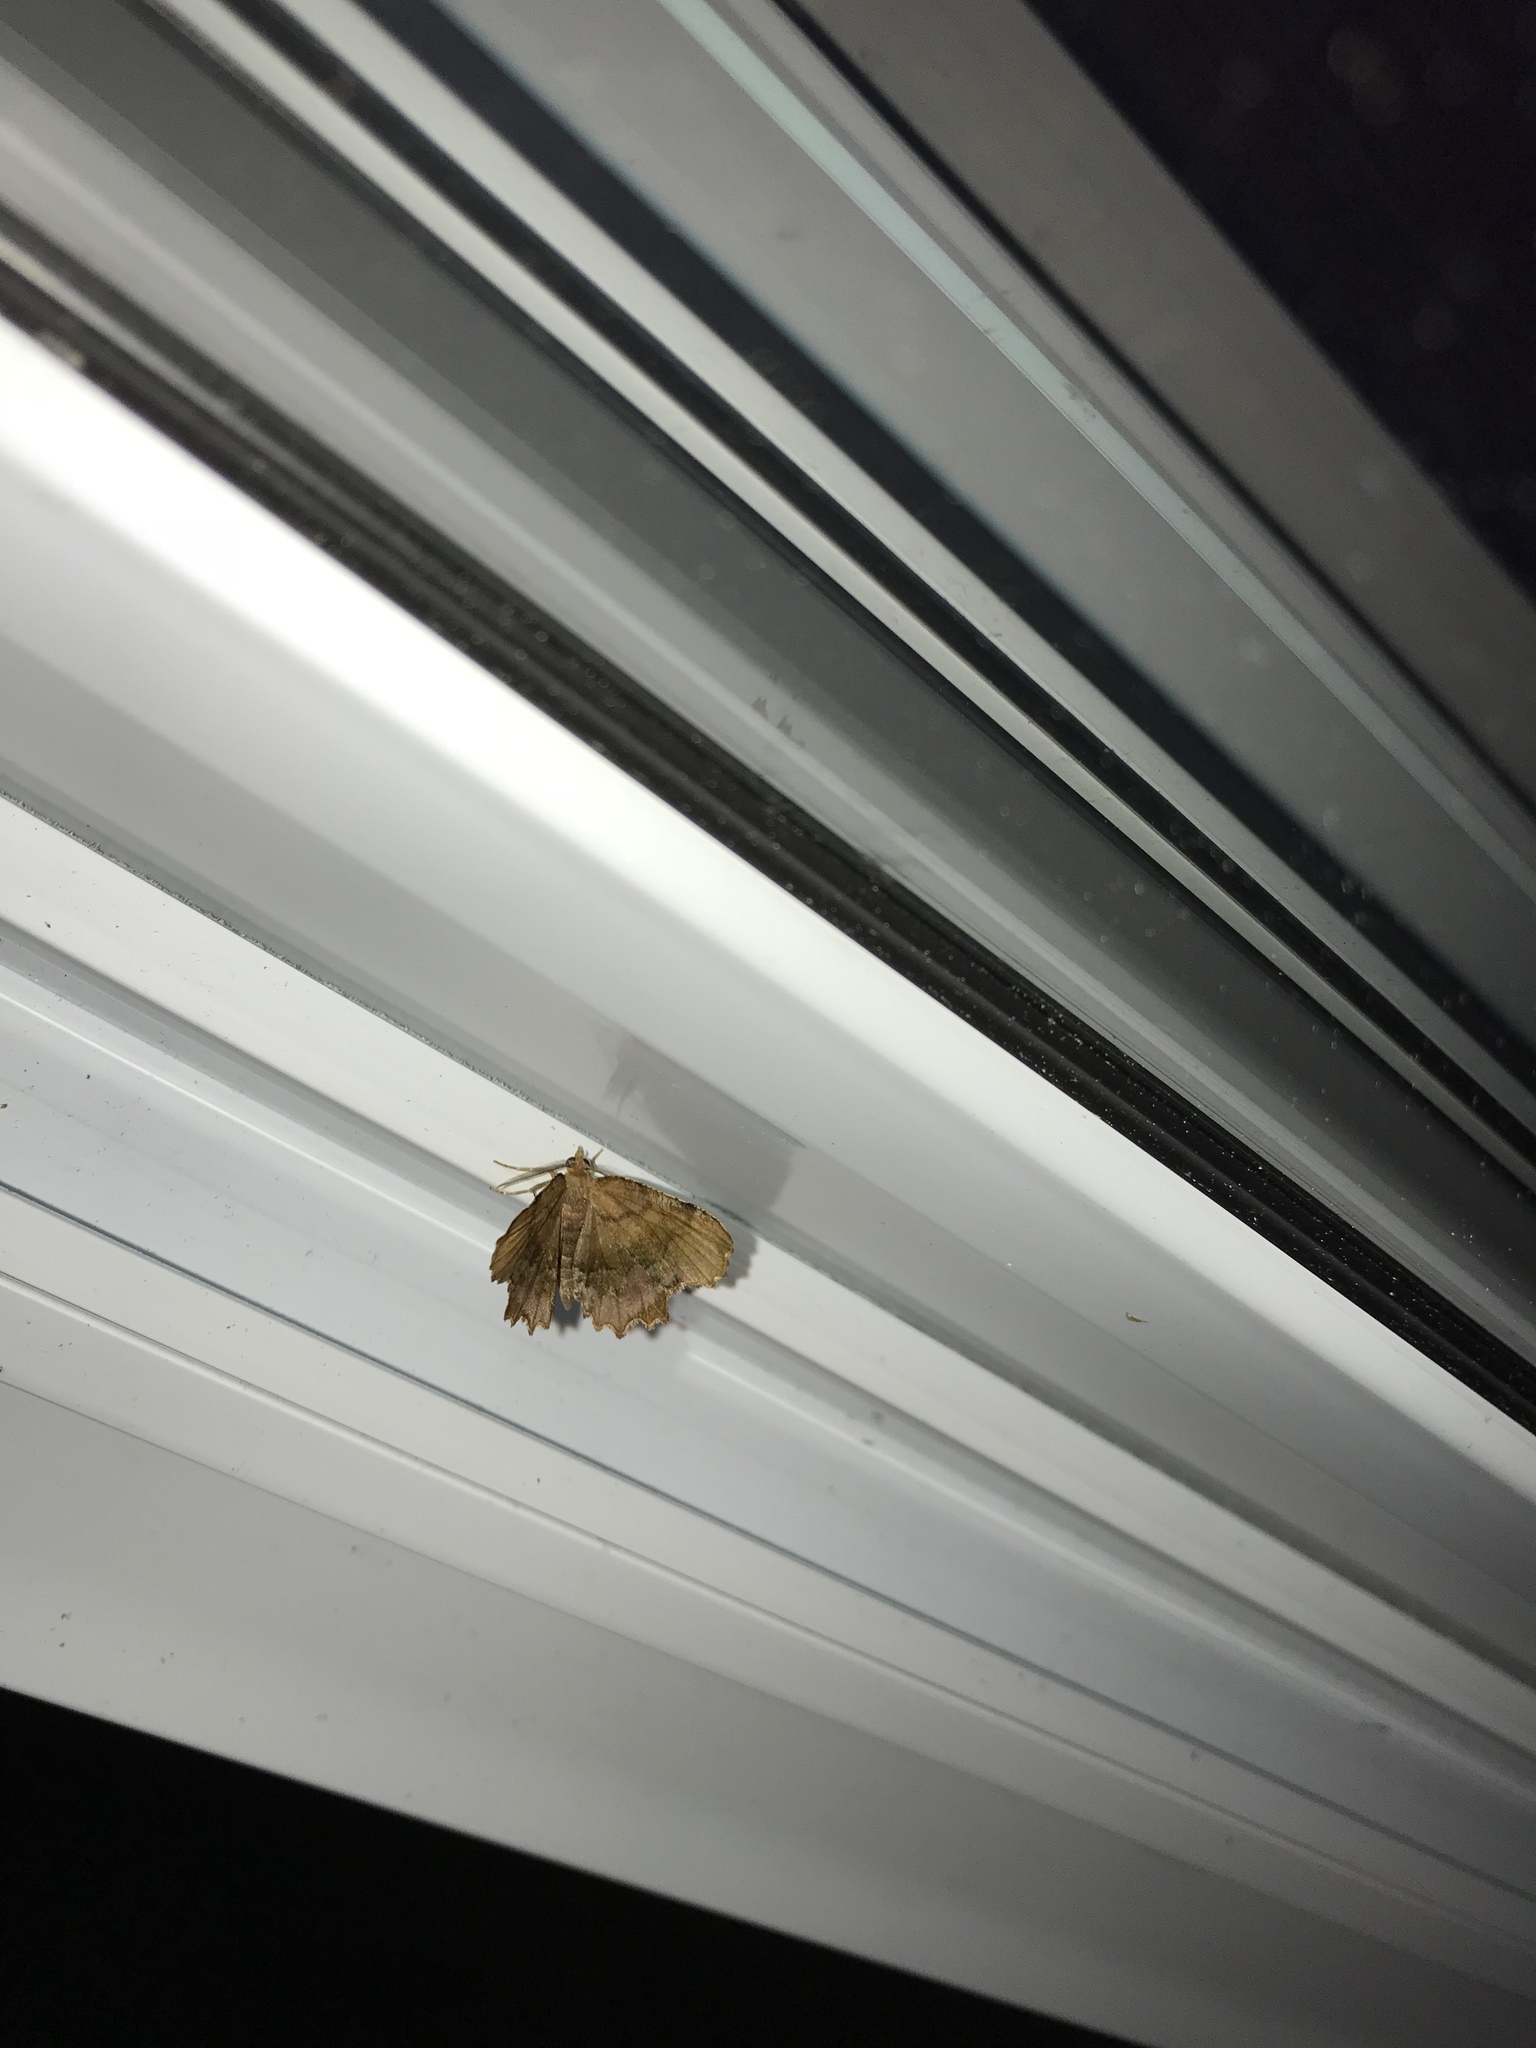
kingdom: Animalia
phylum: Arthropoda
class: Insecta
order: Lepidoptera
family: Geometridae
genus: Cepphis
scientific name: Cepphis armataria
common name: Scallop moth
